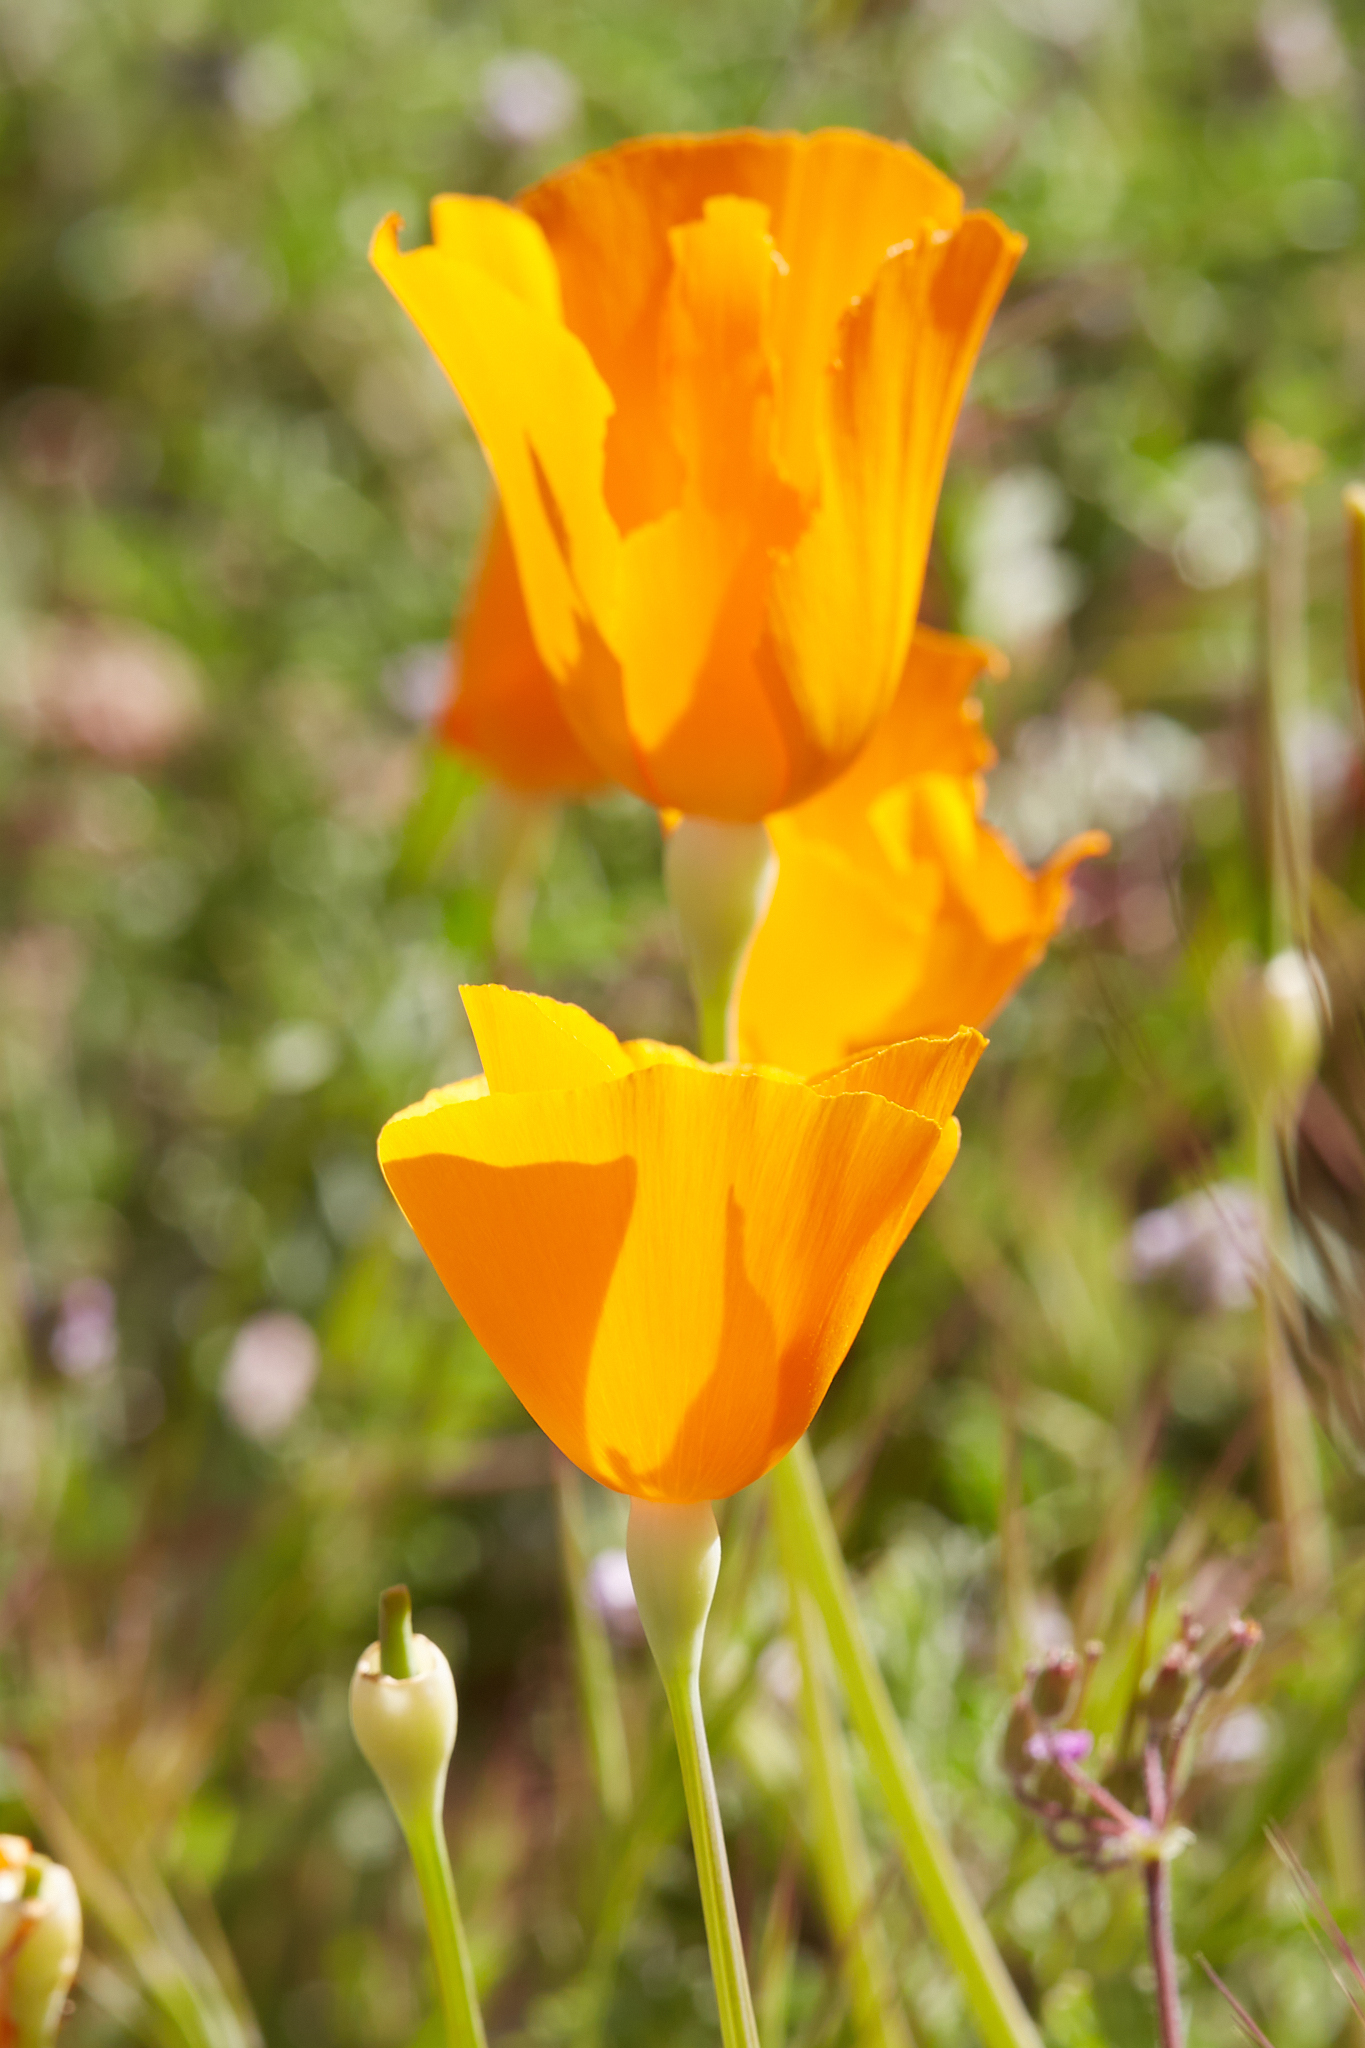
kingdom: Plantae
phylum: Tracheophyta
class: Magnoliopsida
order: Ranunculales
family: Papaveraceae
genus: Eschscholzia
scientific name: Eschscholzia lemmonii
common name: Lemmon's poppy
